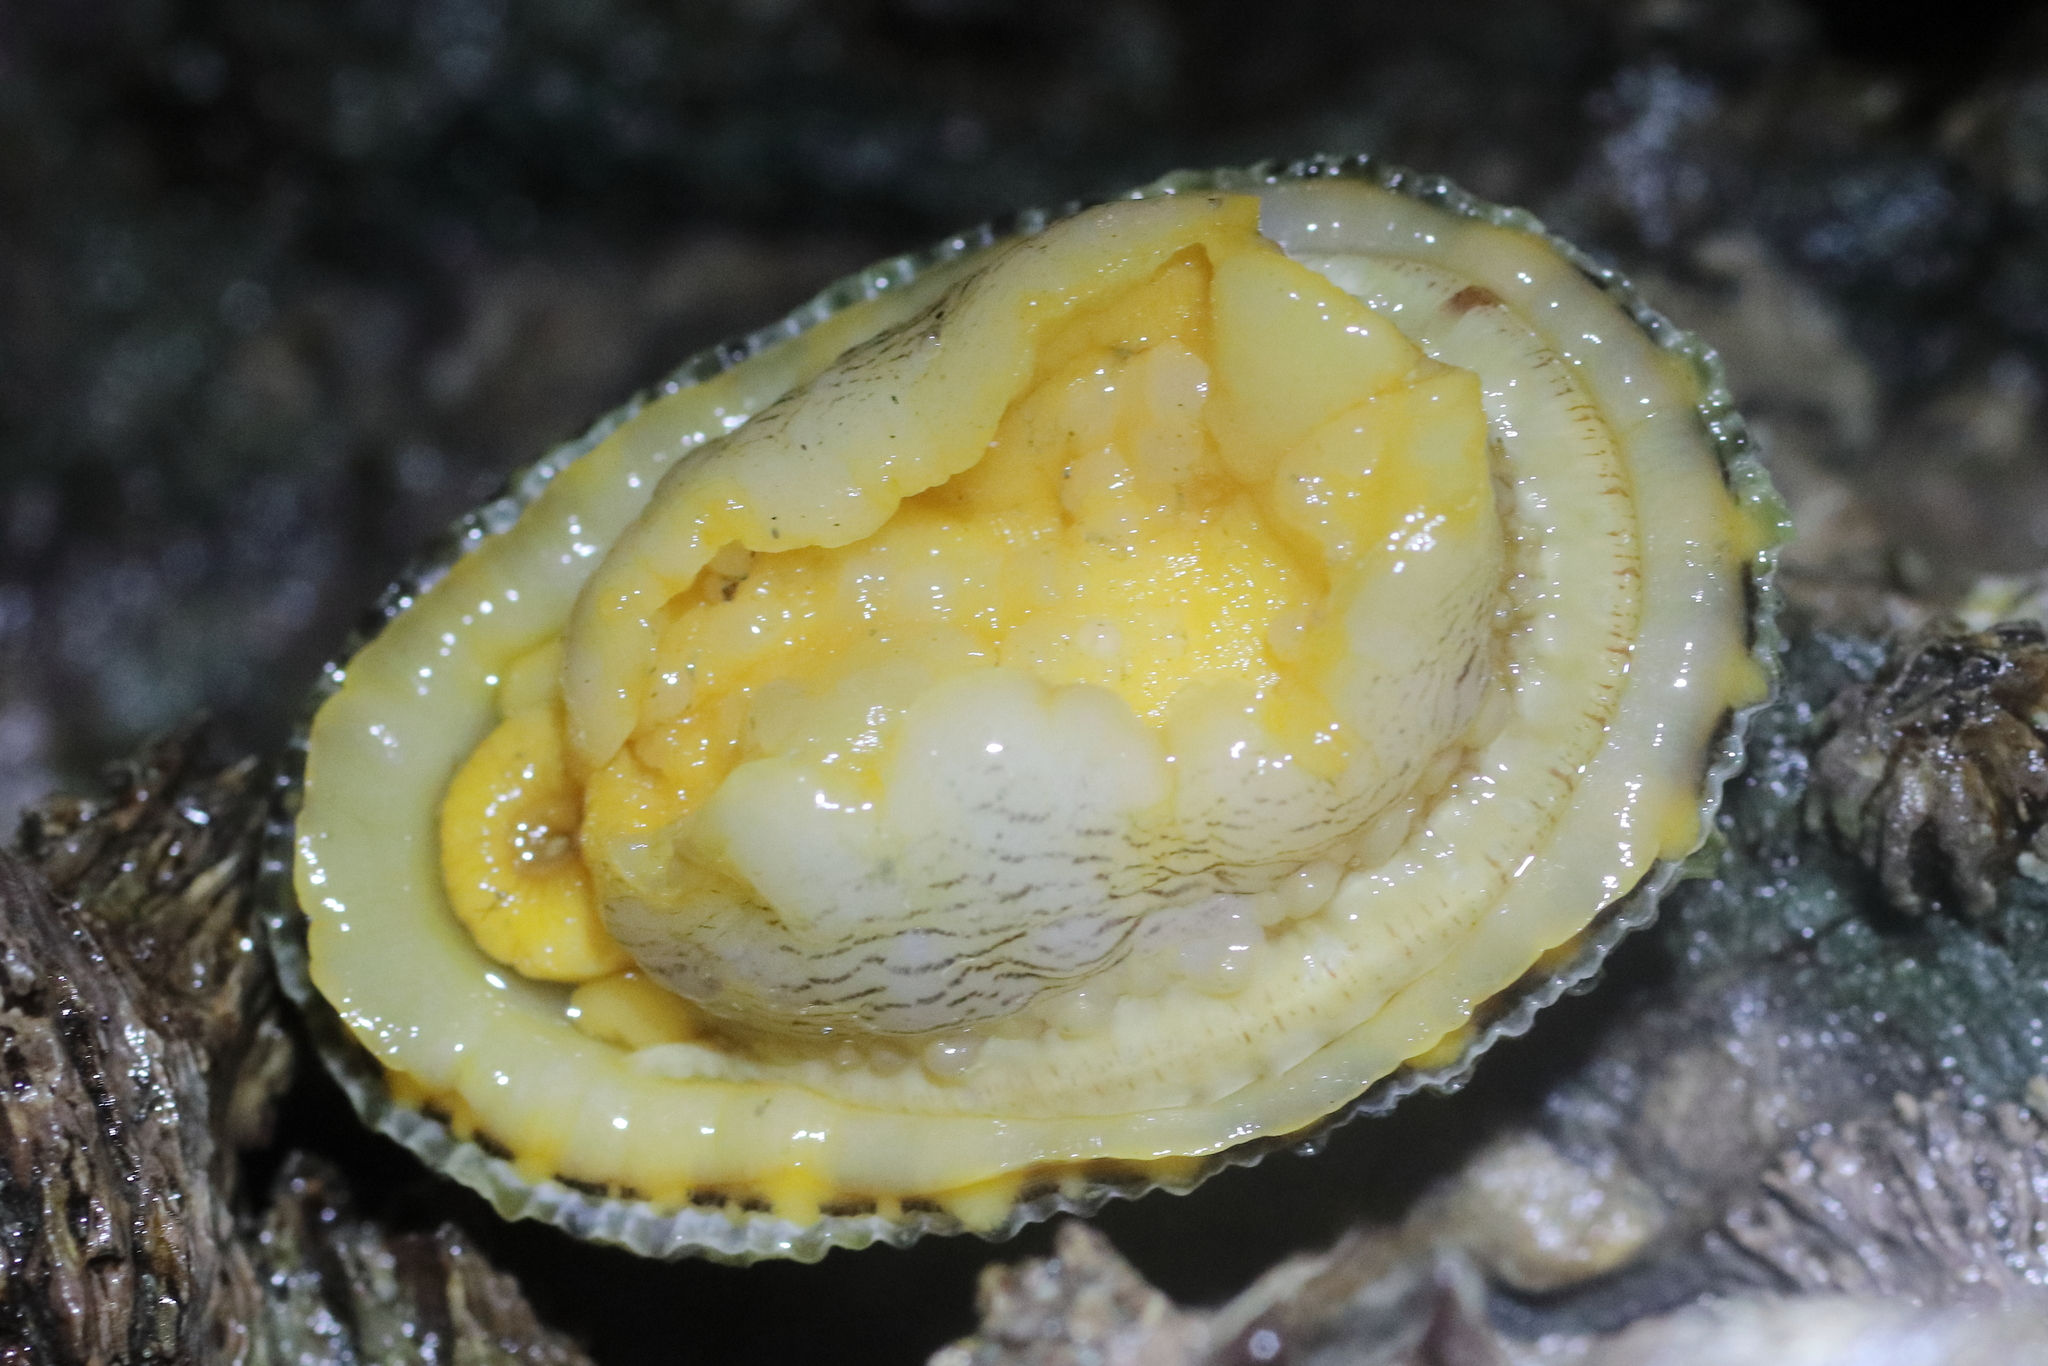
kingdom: Animalia
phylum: Mollusca
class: Gastropoda
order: Lepetellida
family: Fissurellidae
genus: Diodora
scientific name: Diodora aspera
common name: Rough keyhole limpet
